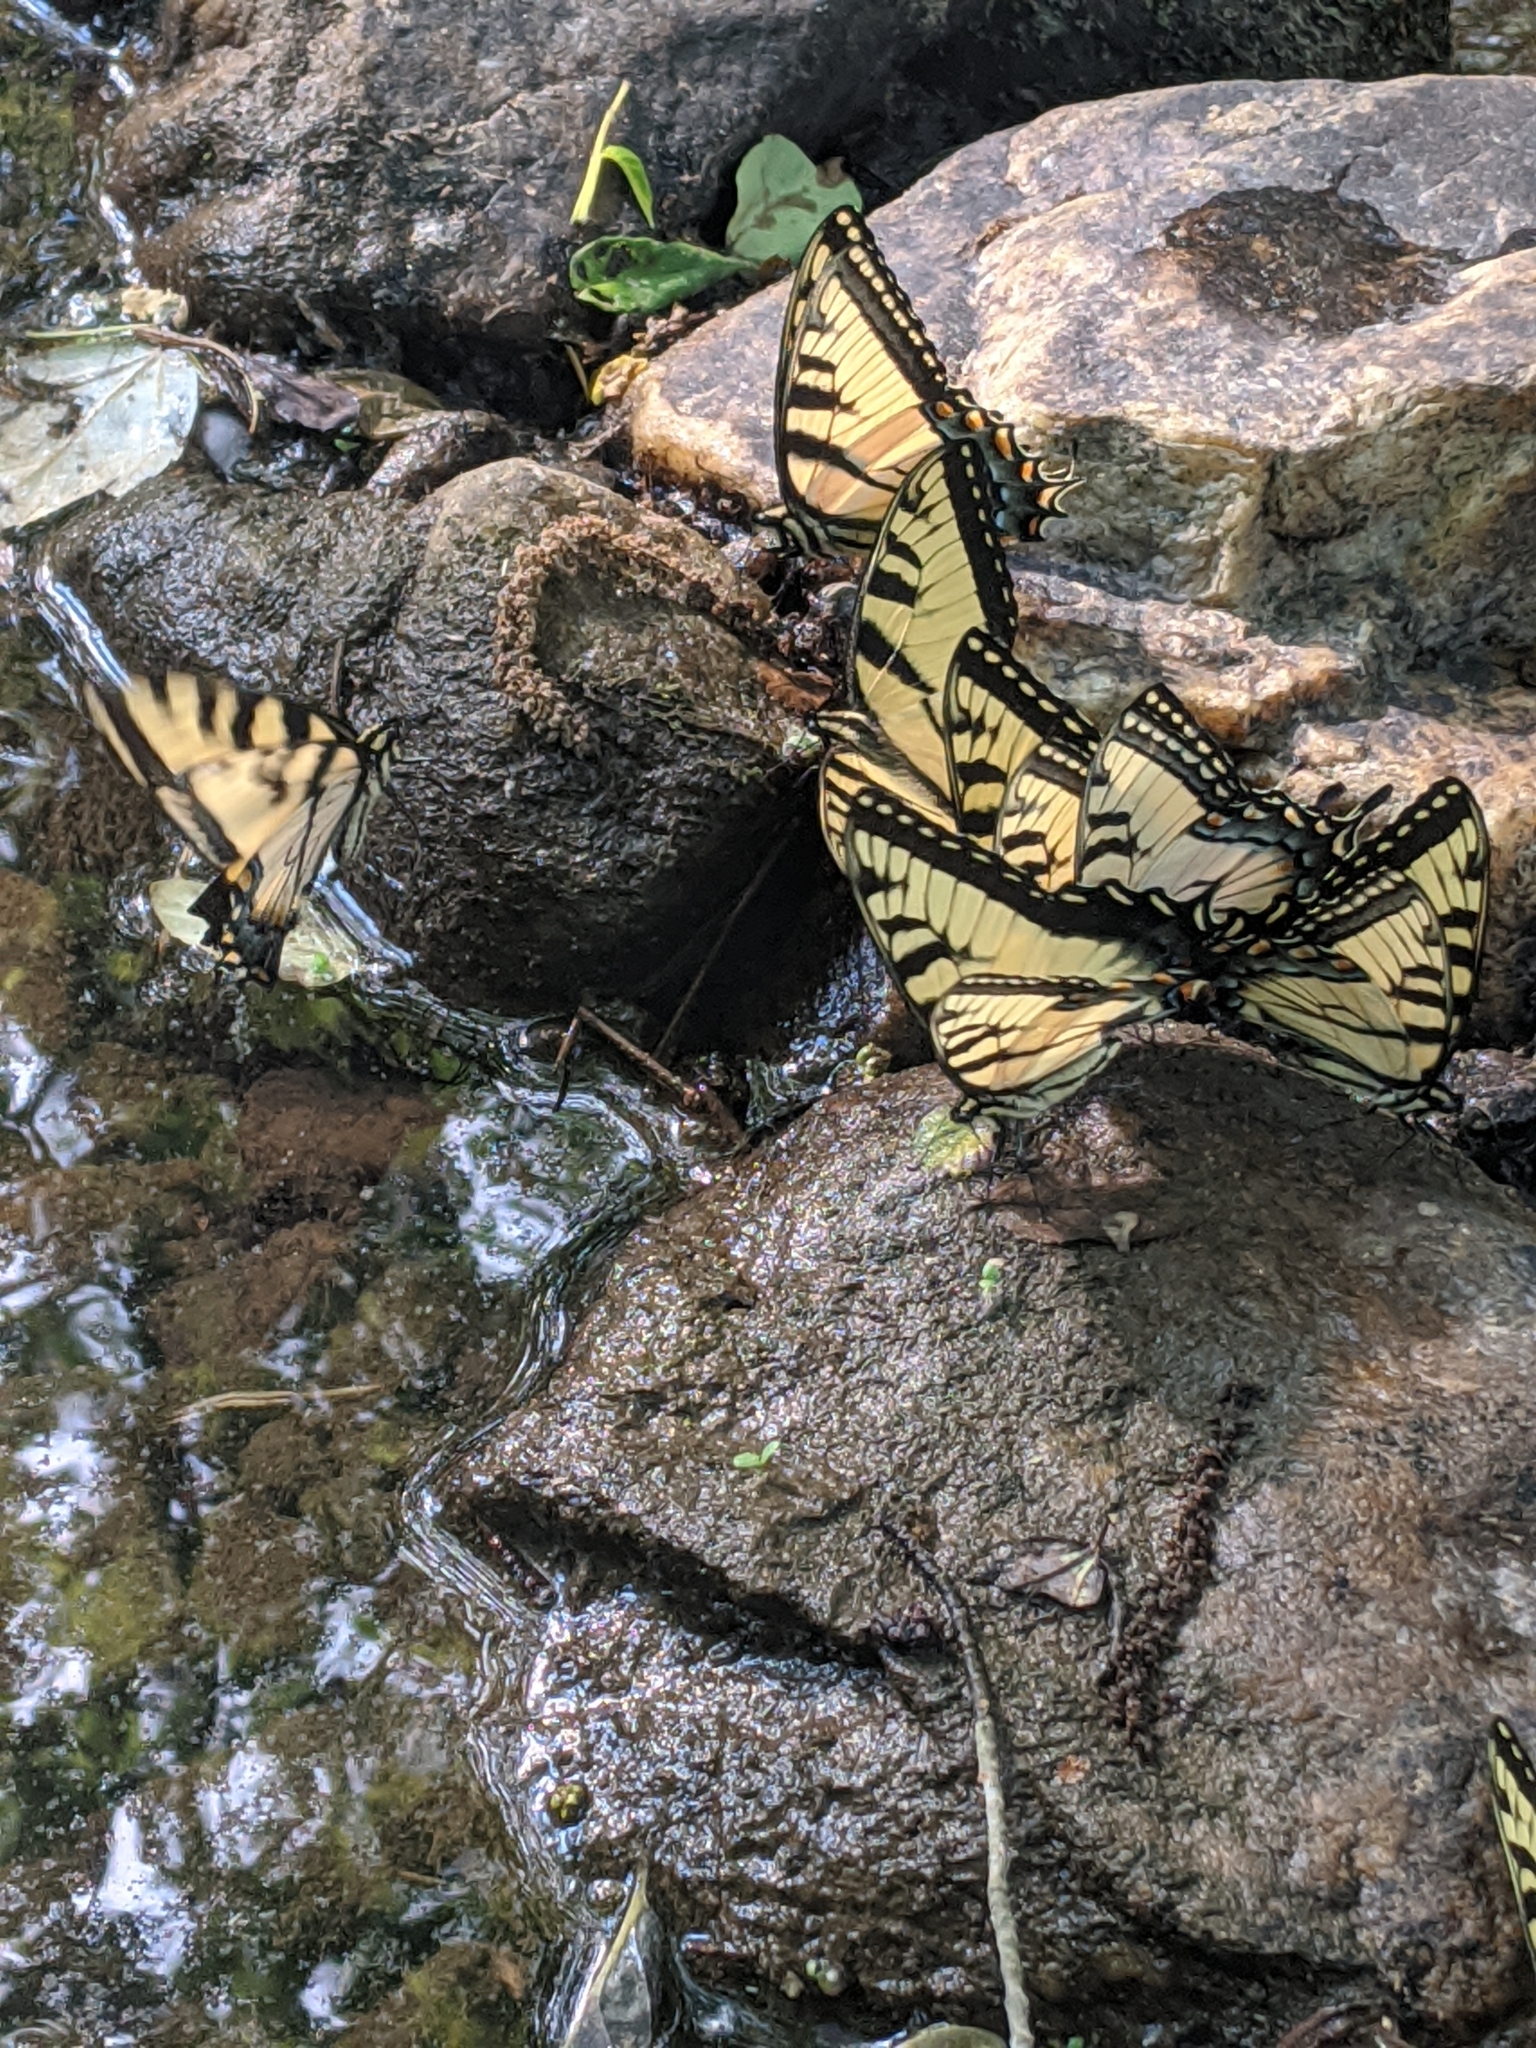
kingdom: Animalia
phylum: Arthropoda
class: Insecta
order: Lepidoptera
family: Papilionidae
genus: Papilio
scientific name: Papilio glaucus
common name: Tiger swallowtail
